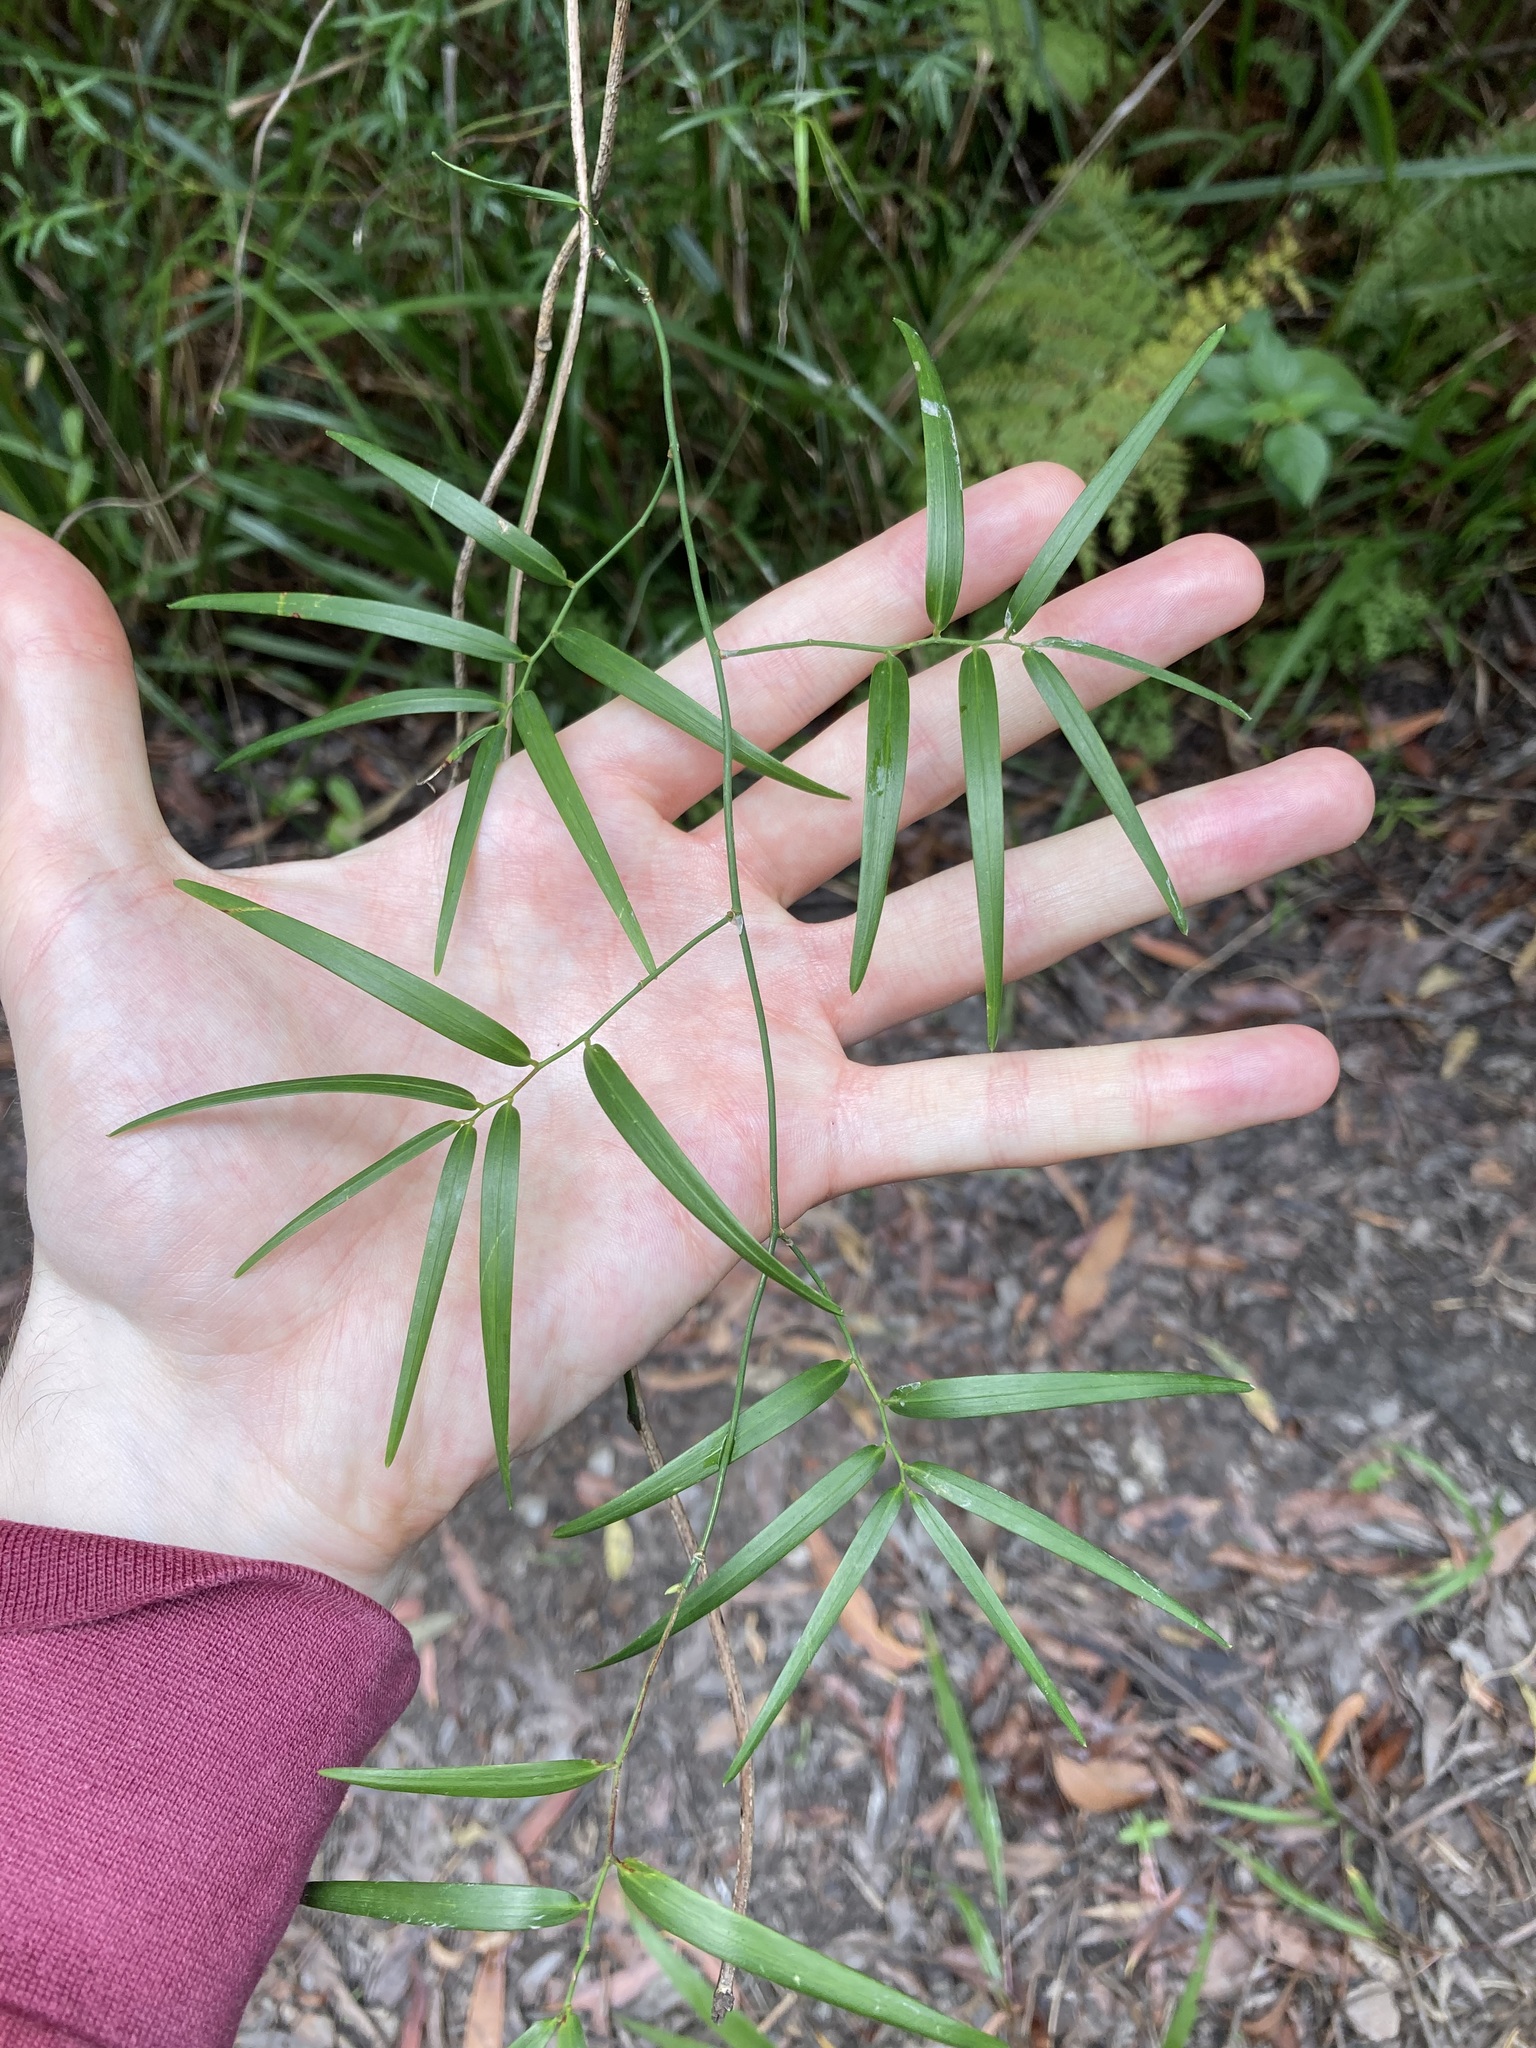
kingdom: Plantae
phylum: Tracheophyta
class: Liliopsida
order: Asparagales
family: Asphodelaceae
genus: Geitonoplesium
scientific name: Geitonoplesium cymosum
